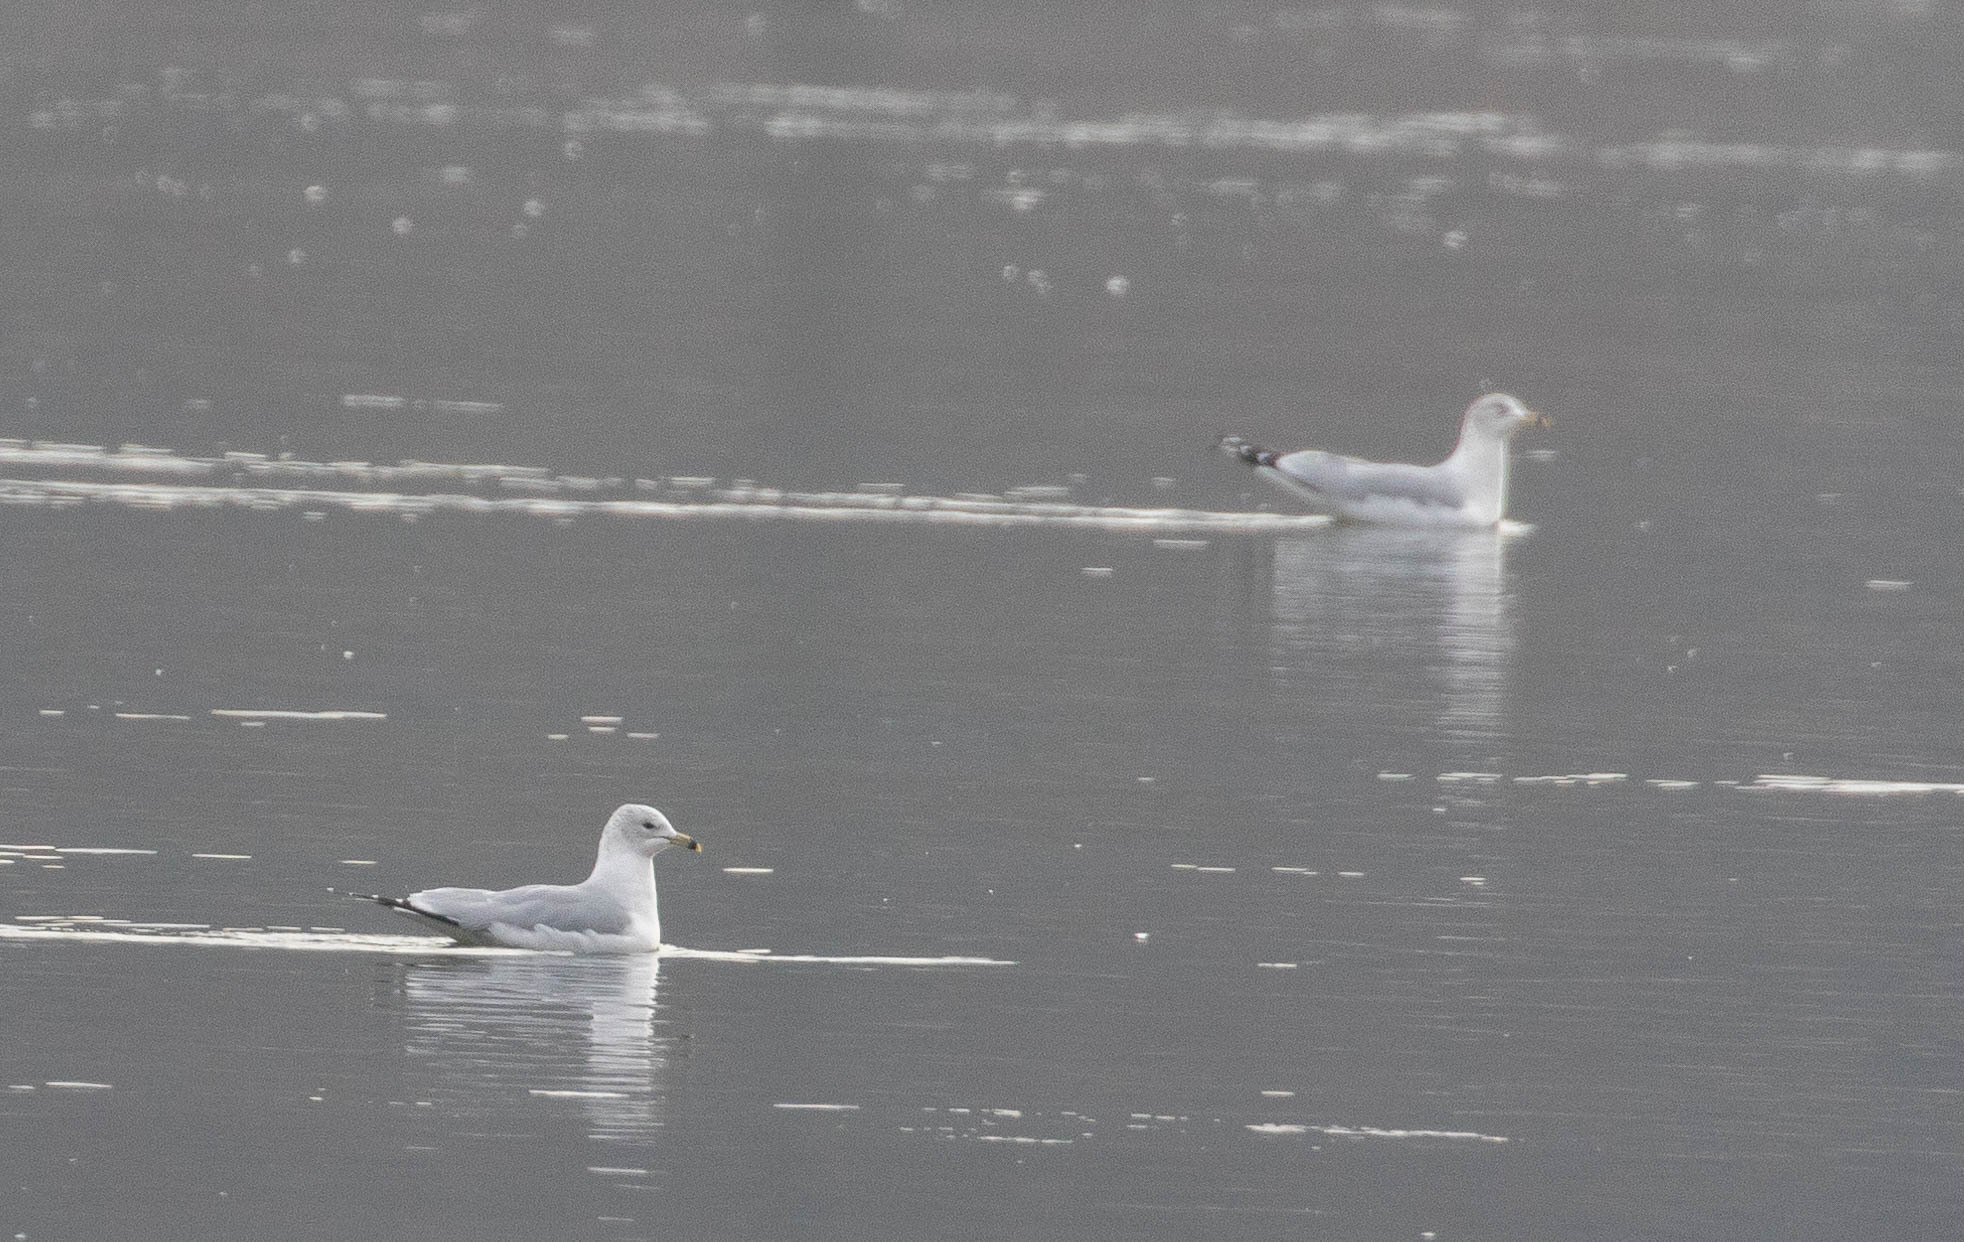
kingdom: Animalia
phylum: Chordata
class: Aves
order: Charadriiformes
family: Laridae
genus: Larus
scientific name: Larus delawarensis
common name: Ring-billed gull
